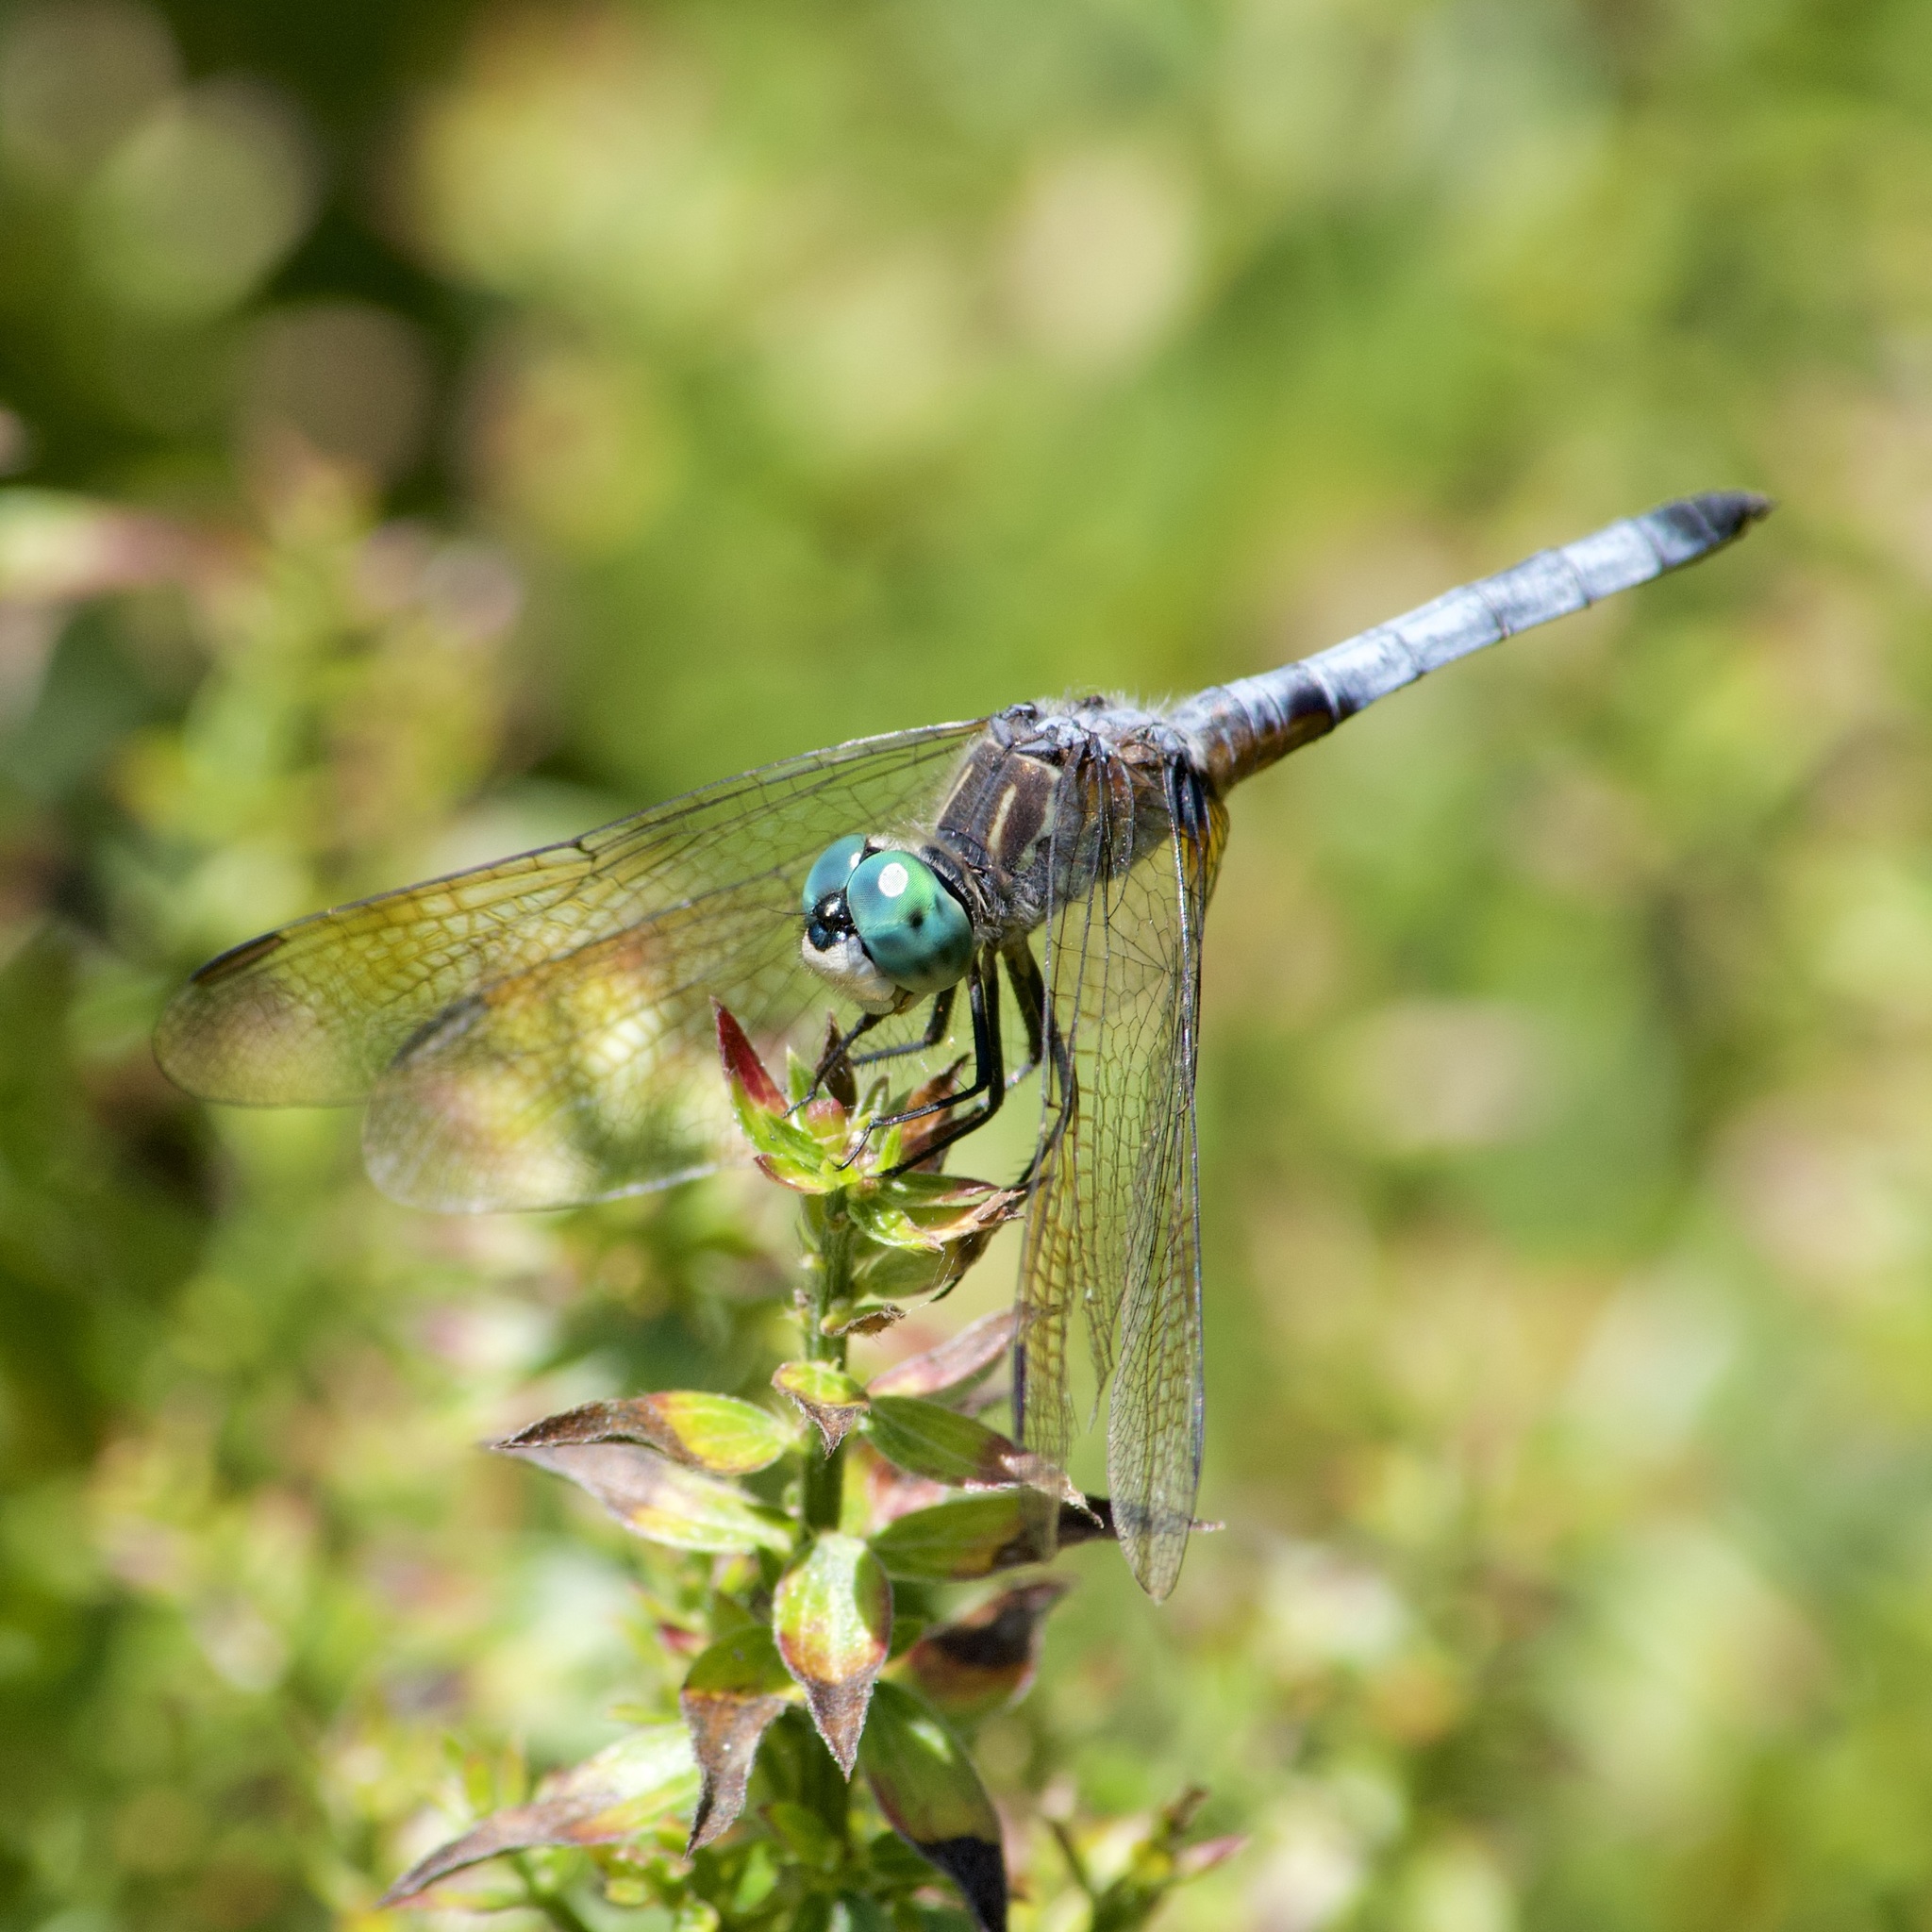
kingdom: Animalia
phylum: Arthropoda
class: Insecta
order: Odonata
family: Libellulidae
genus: Pachydiplax
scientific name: Pachydiplax longipennis
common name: Blue dasher
